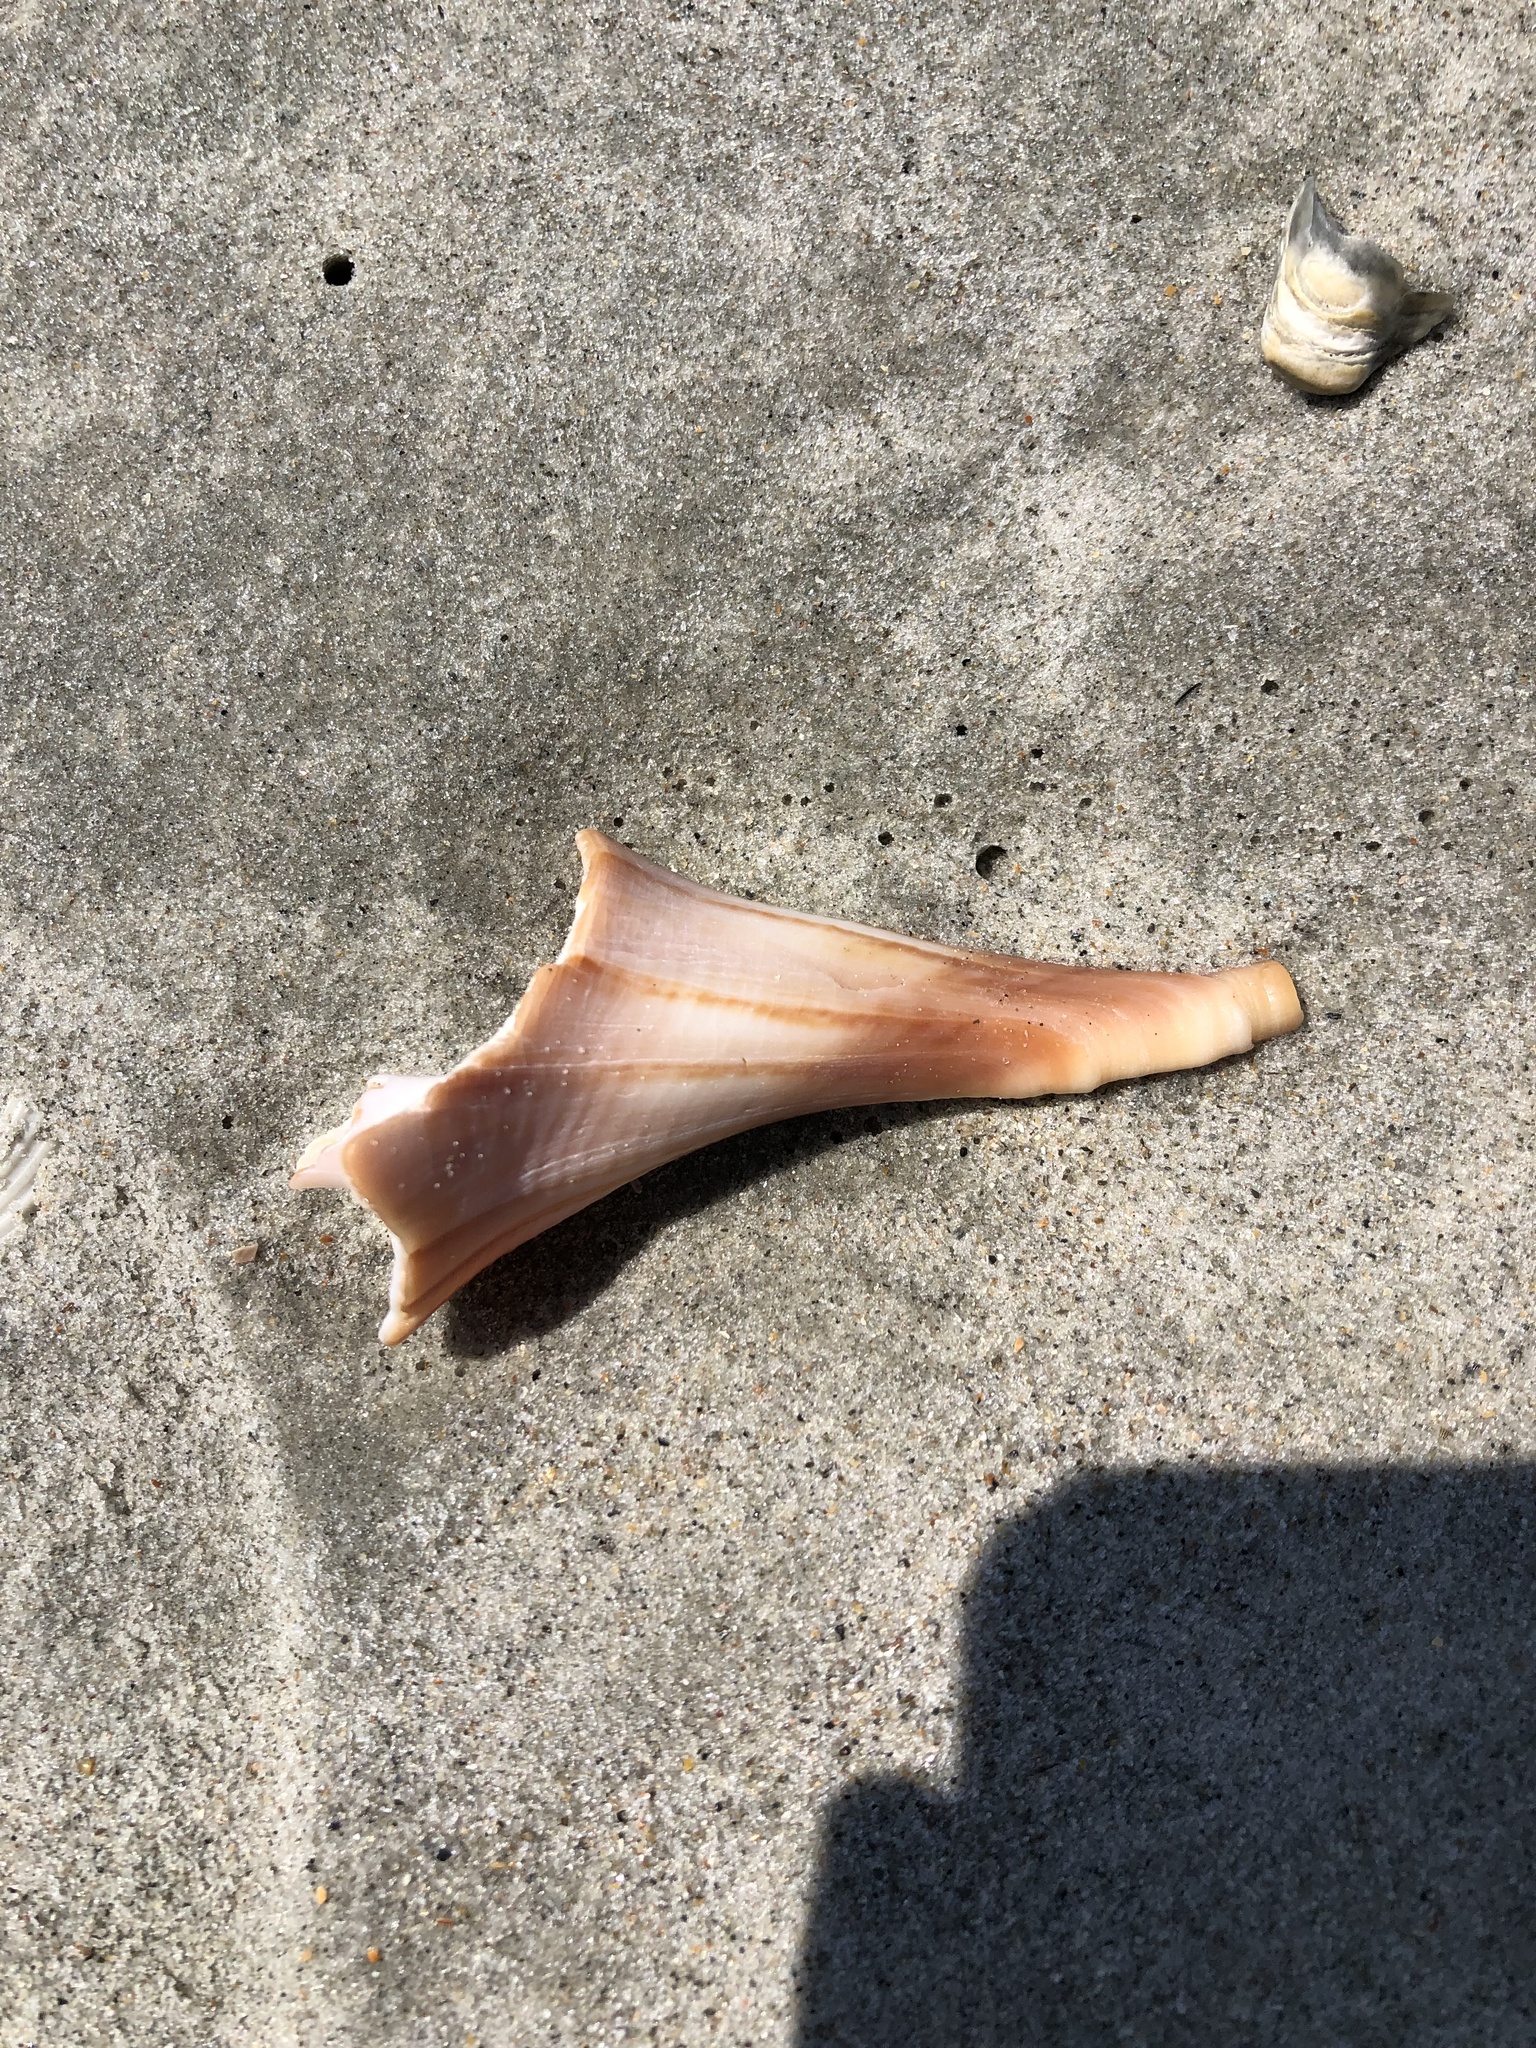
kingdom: Animalia
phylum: Mollusca
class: Gastropoda
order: Neogastropoda
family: Busyconidae
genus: Sinistrofulgur
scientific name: Sinistrofulgur sinistrum
